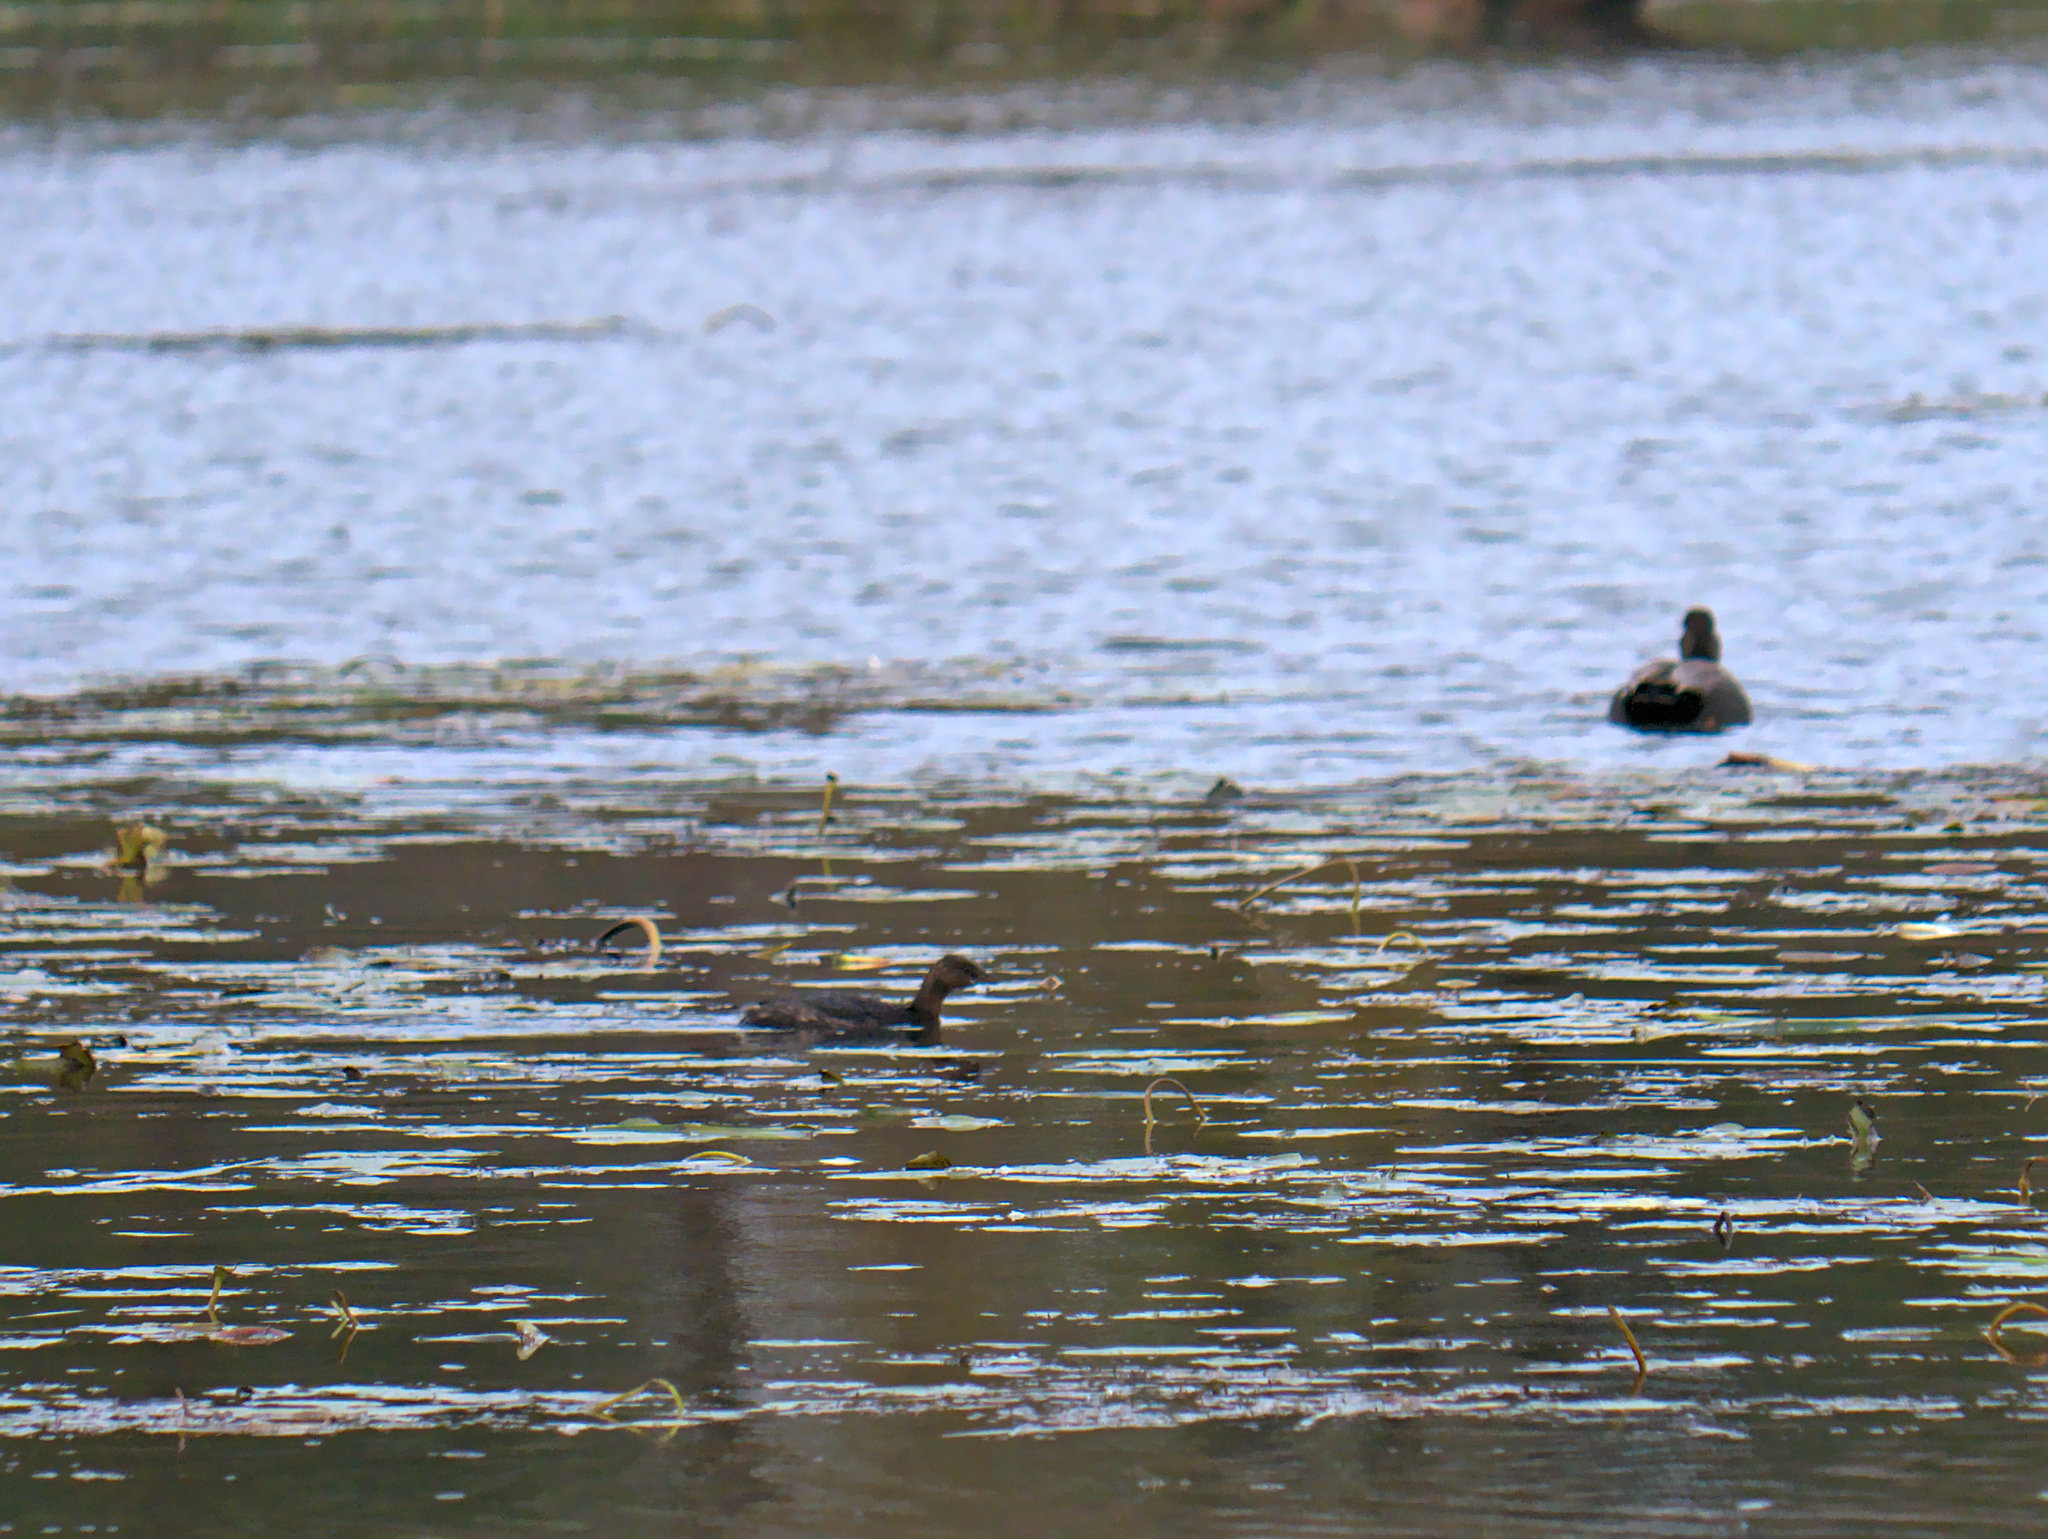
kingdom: Animalia
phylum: Chordata
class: Aves
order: Podicipediformes
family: Podicipedidae
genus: Podilymbus
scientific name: Podilymbus podiceps
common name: Pied-billed grebe
